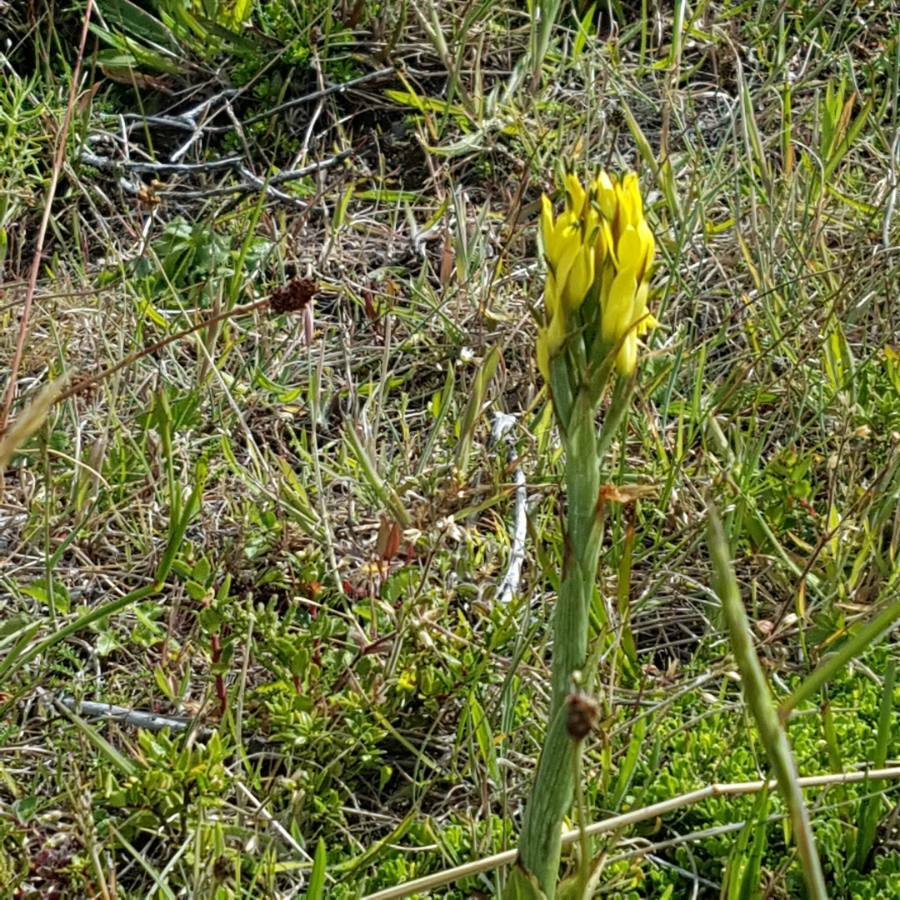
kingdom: Plantae
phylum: Tracheophyta
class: Liliopsida
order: Asparagales
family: Orchidaceae
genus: Gavilea
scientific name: Gavilea supralabellata
